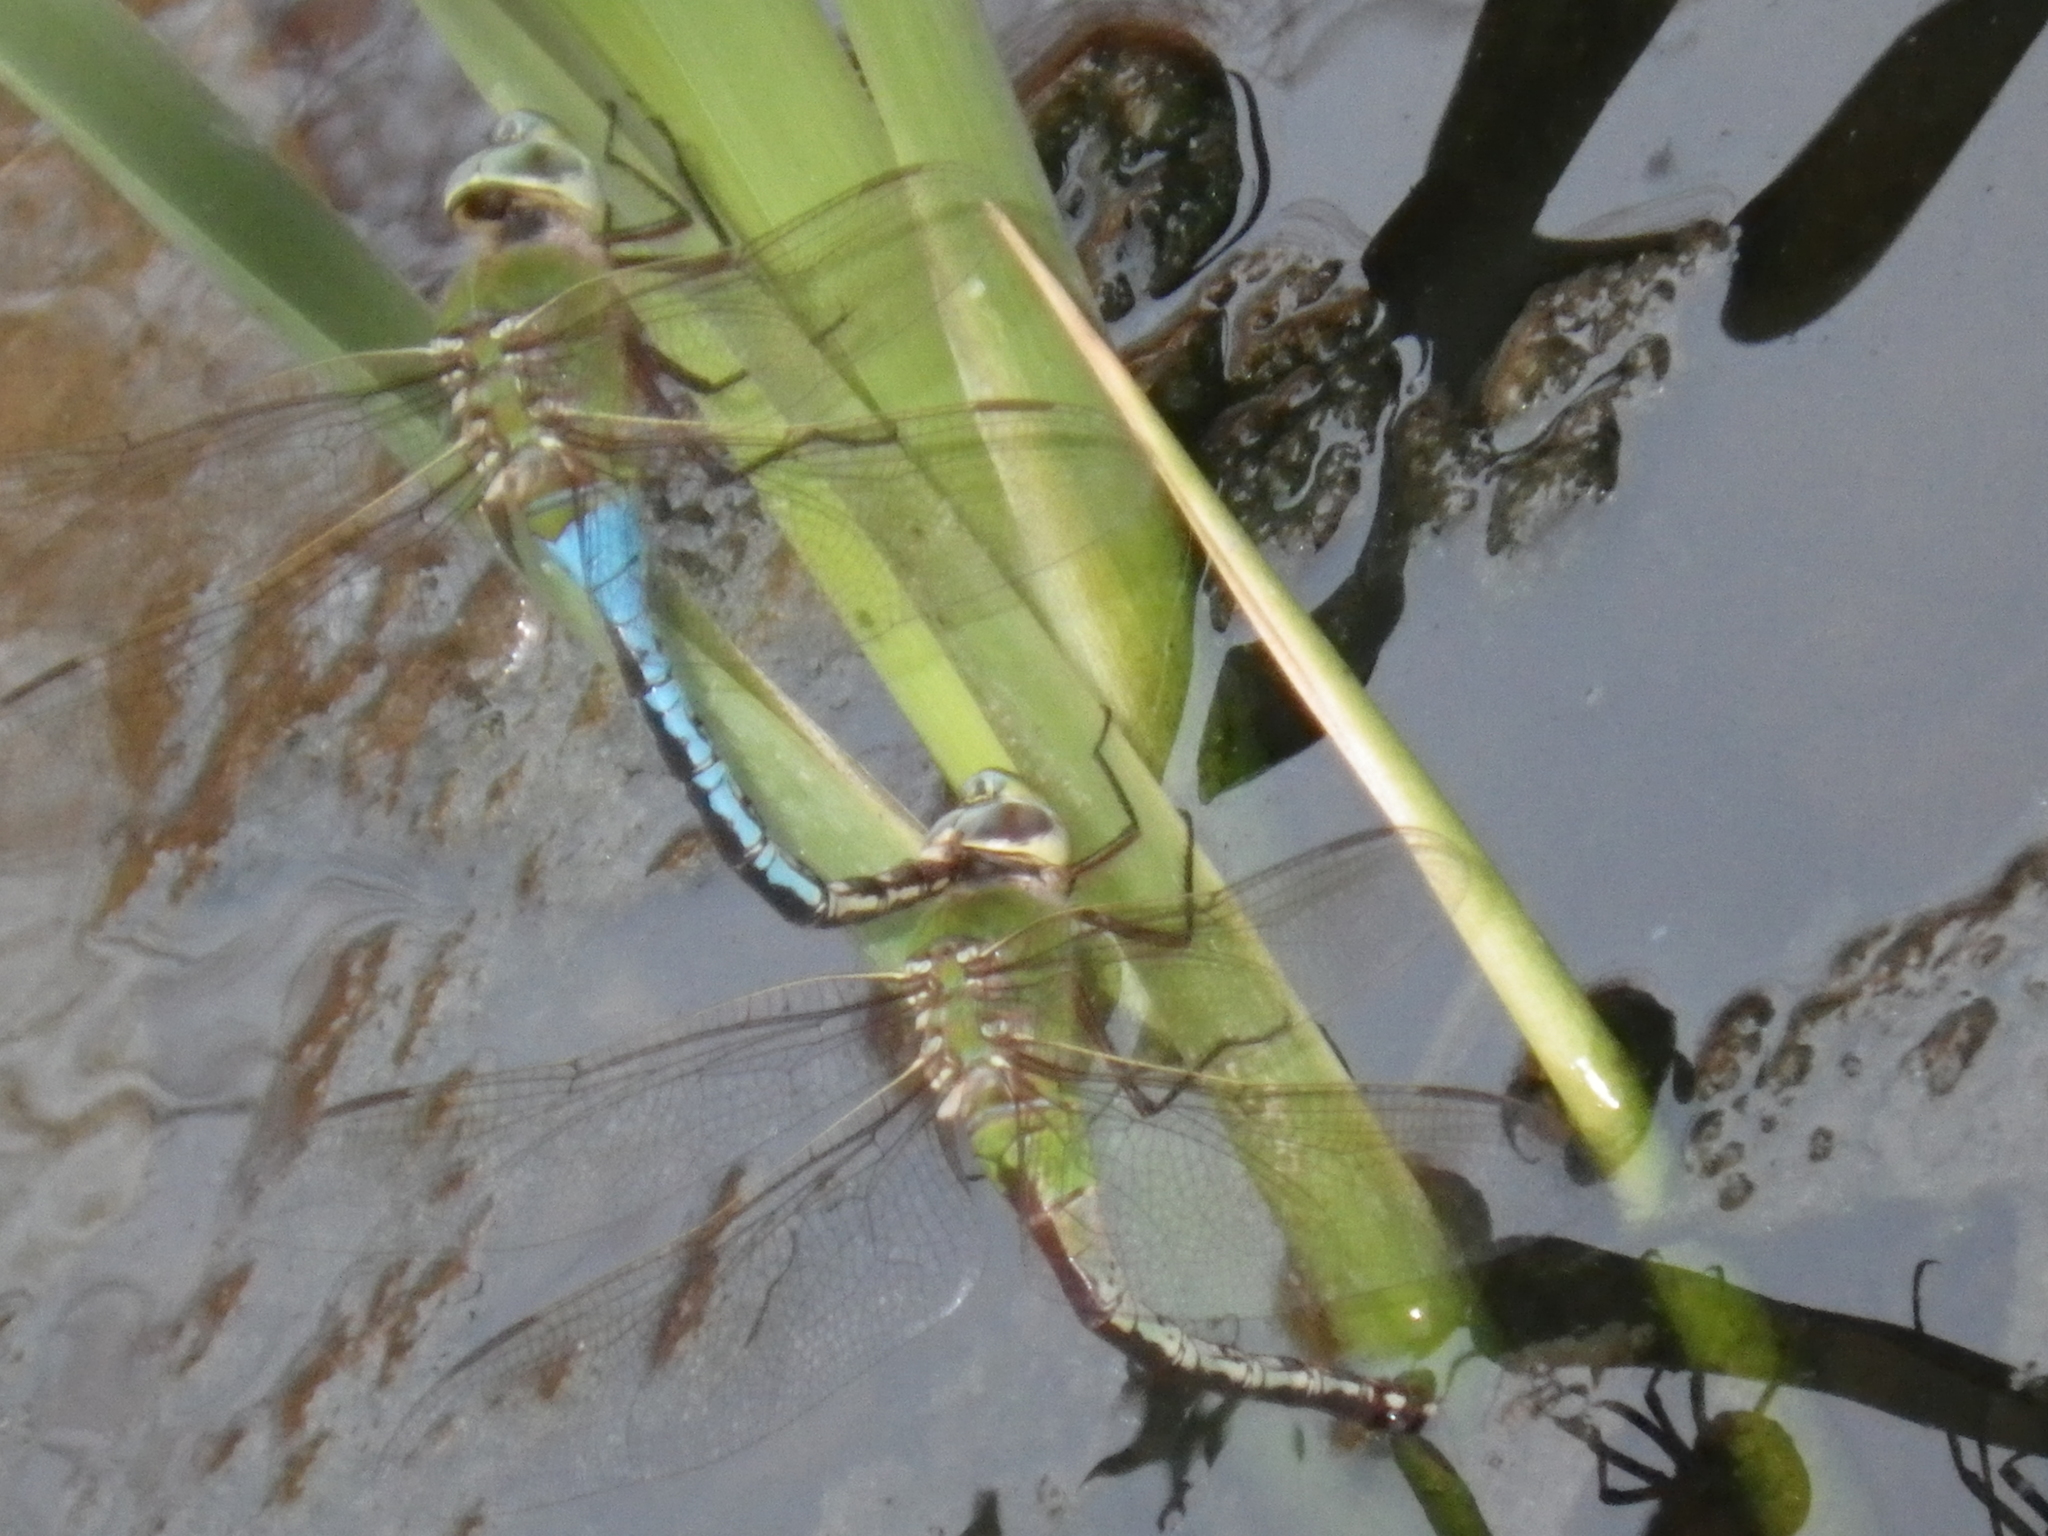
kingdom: Animalia
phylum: Arthropoda
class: Insecta
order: Odonata
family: Aeshnidae
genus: Anax
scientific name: Anax junius
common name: Common green darner
